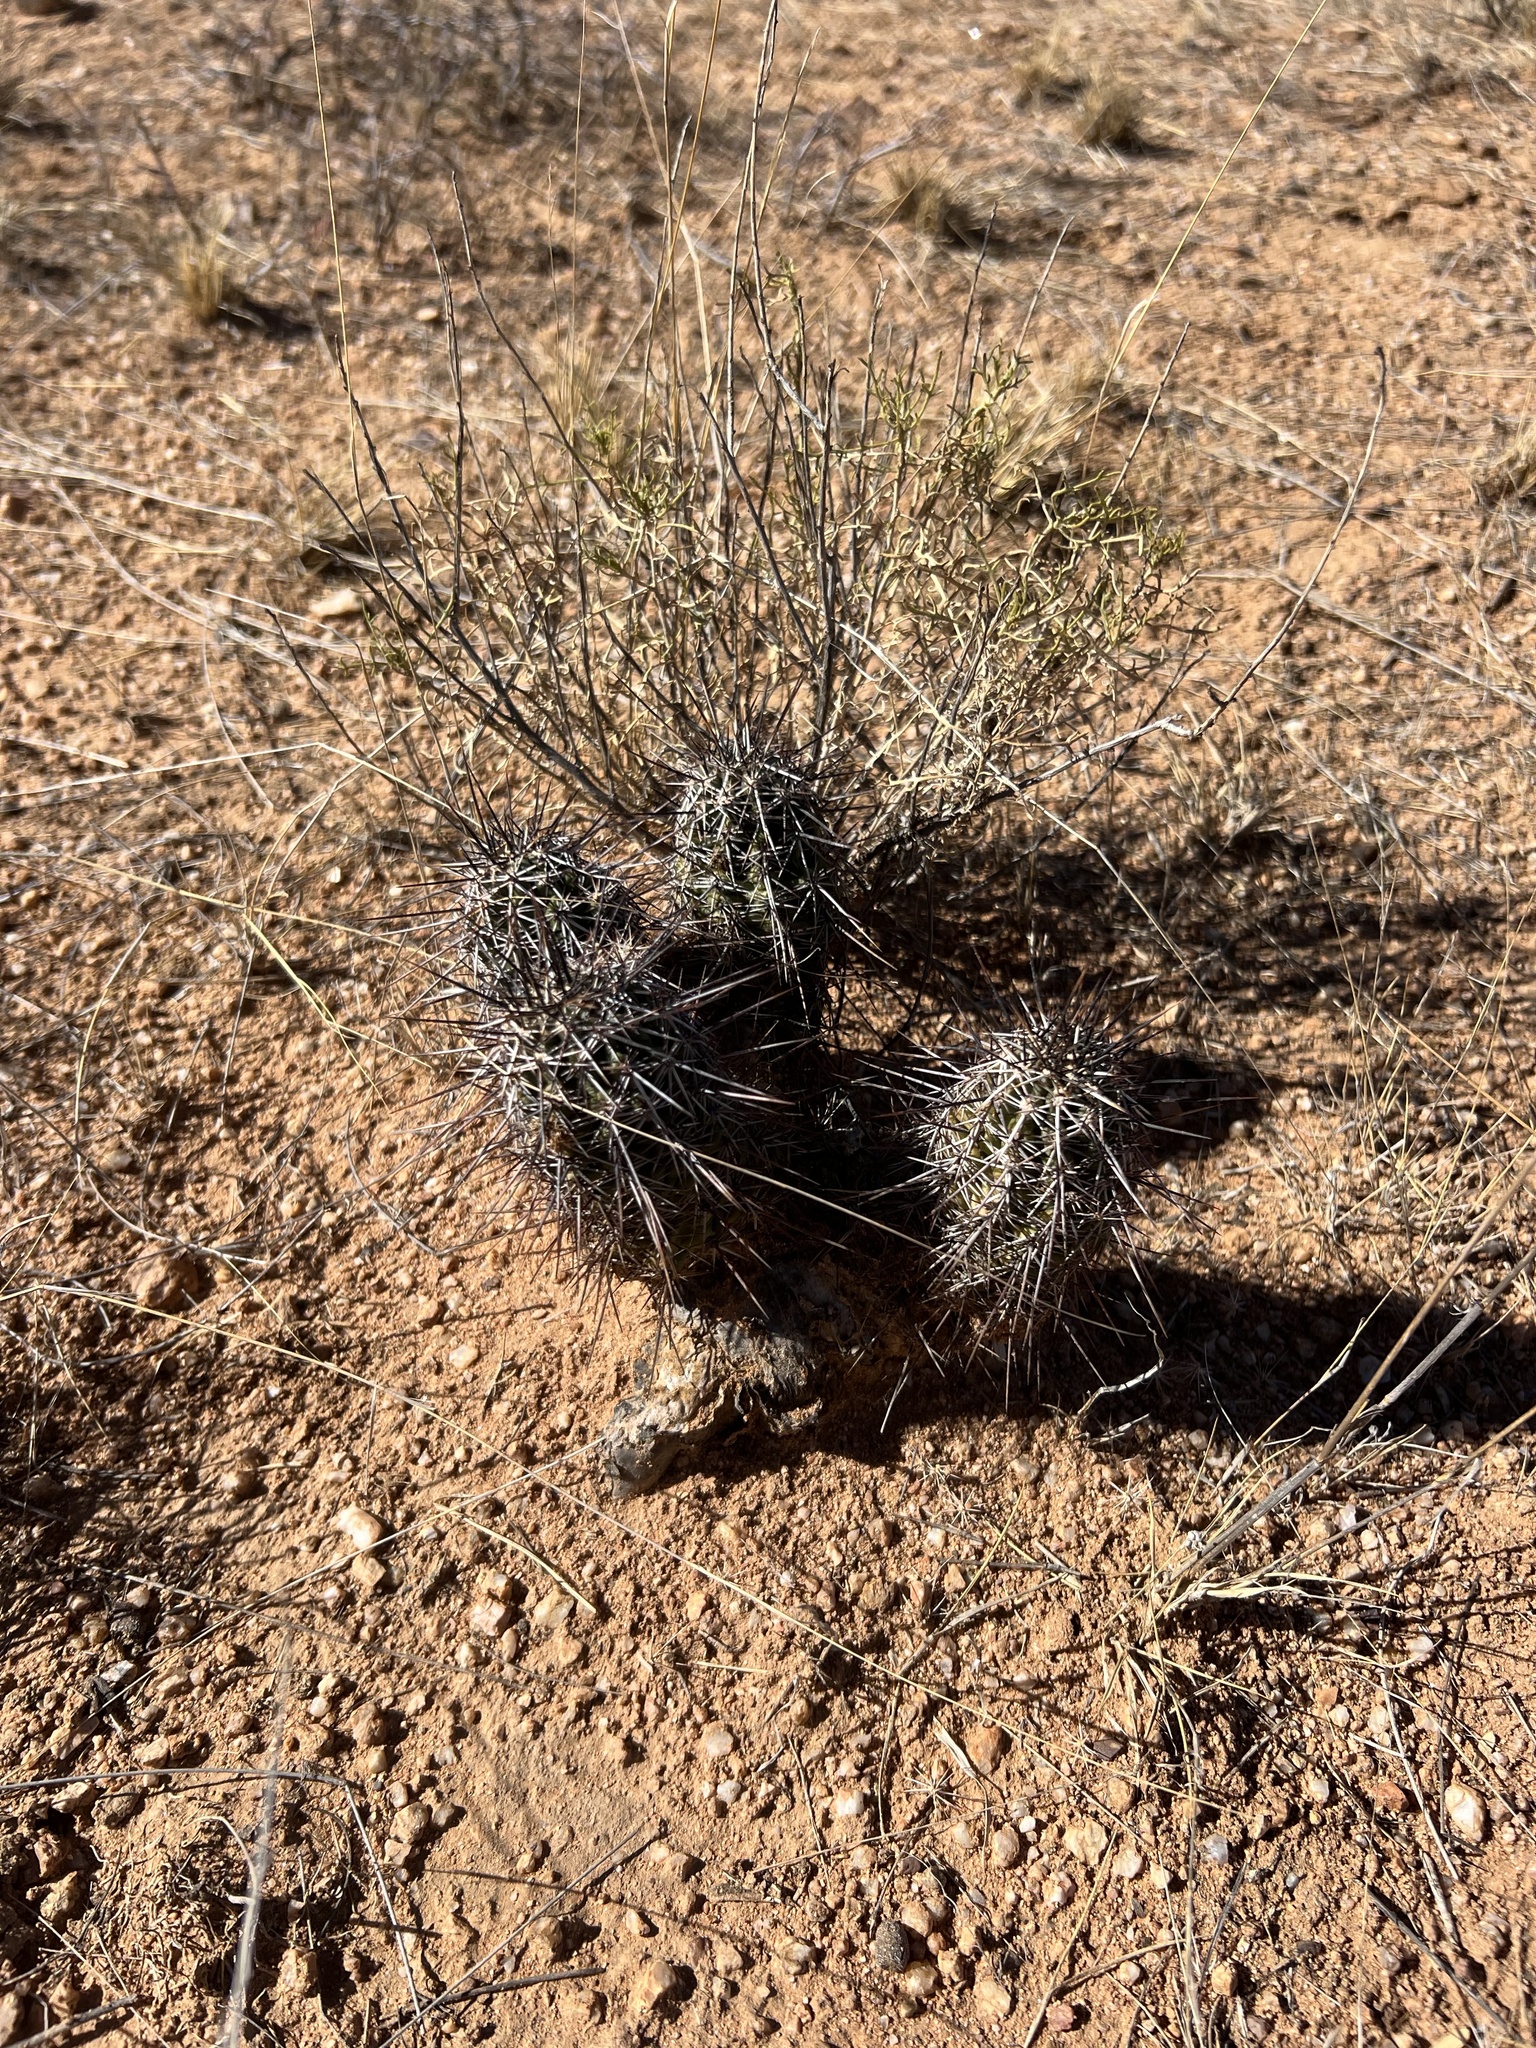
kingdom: Plantae
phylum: Tracheophyta
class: Magnoliopsida
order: Caryophyllales
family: Cactaceae
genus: Echinocereus
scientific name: Echinocereus fasciculatus
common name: Bundle hedgehog
